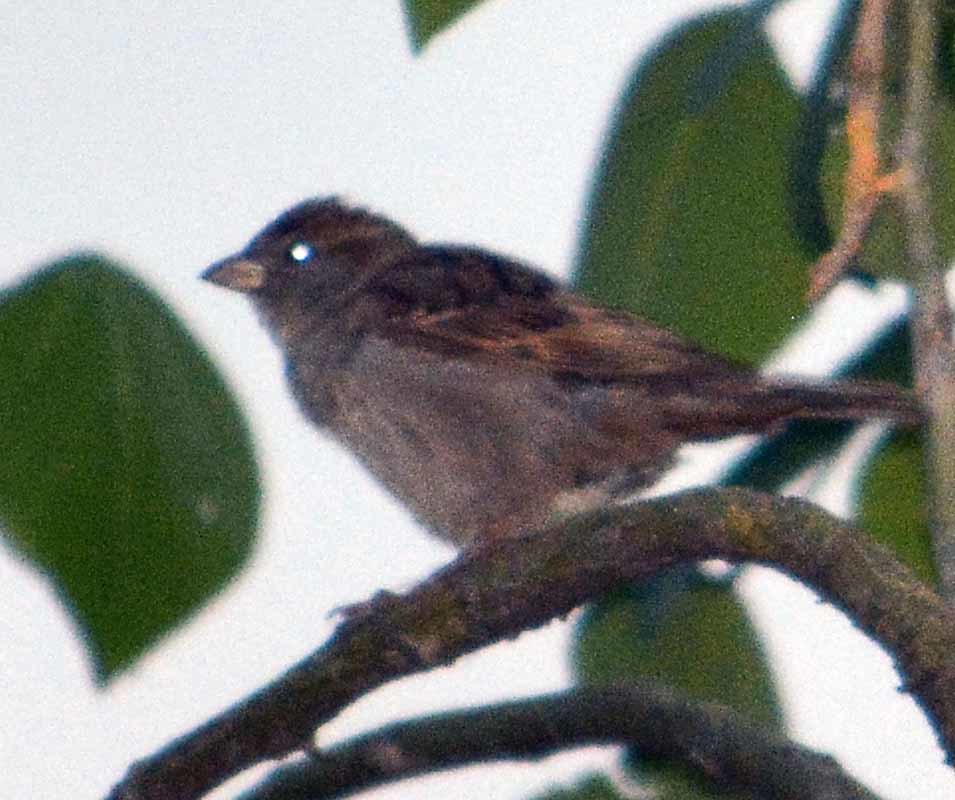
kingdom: Animalia
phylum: Chordata
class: Aves
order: Passeriformes
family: Passeridae
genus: Passer
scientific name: Passer domesticus
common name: House sparrow
